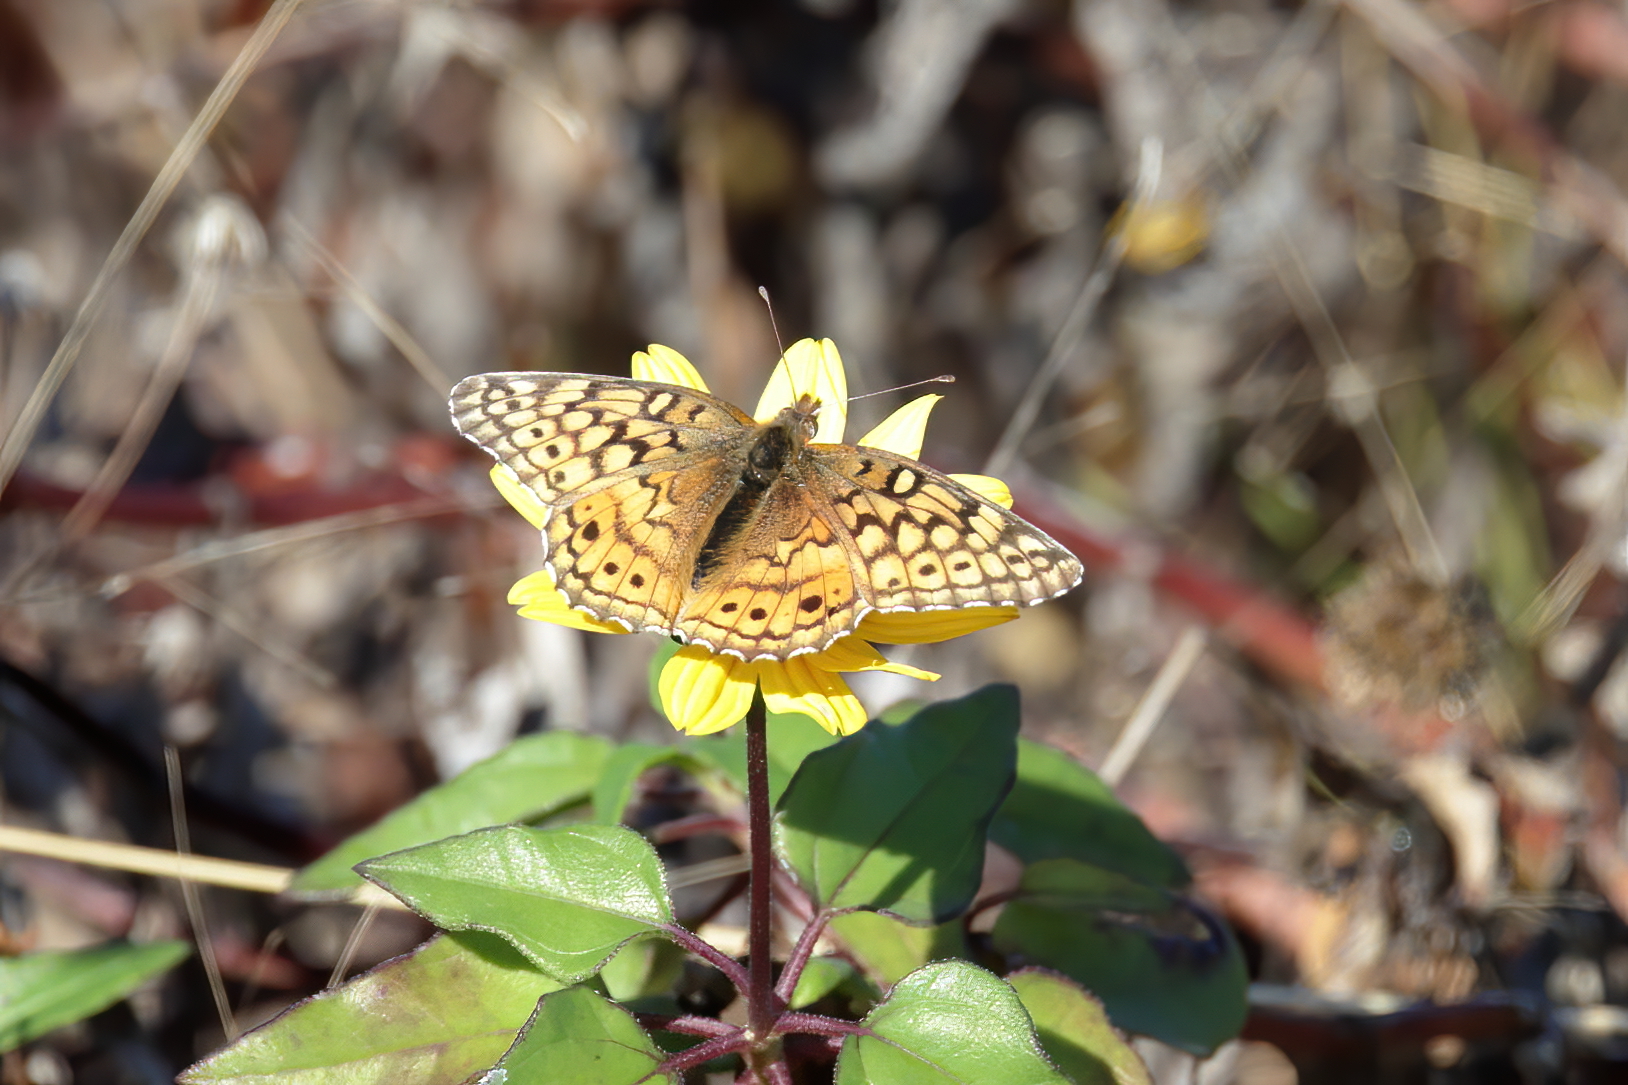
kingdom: Animalia
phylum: Arthropoda
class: Insecta
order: Lepidoptera
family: Nymphalidae
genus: Euptoieta
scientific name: Euptoieta claudia
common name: Variegated fritillary
